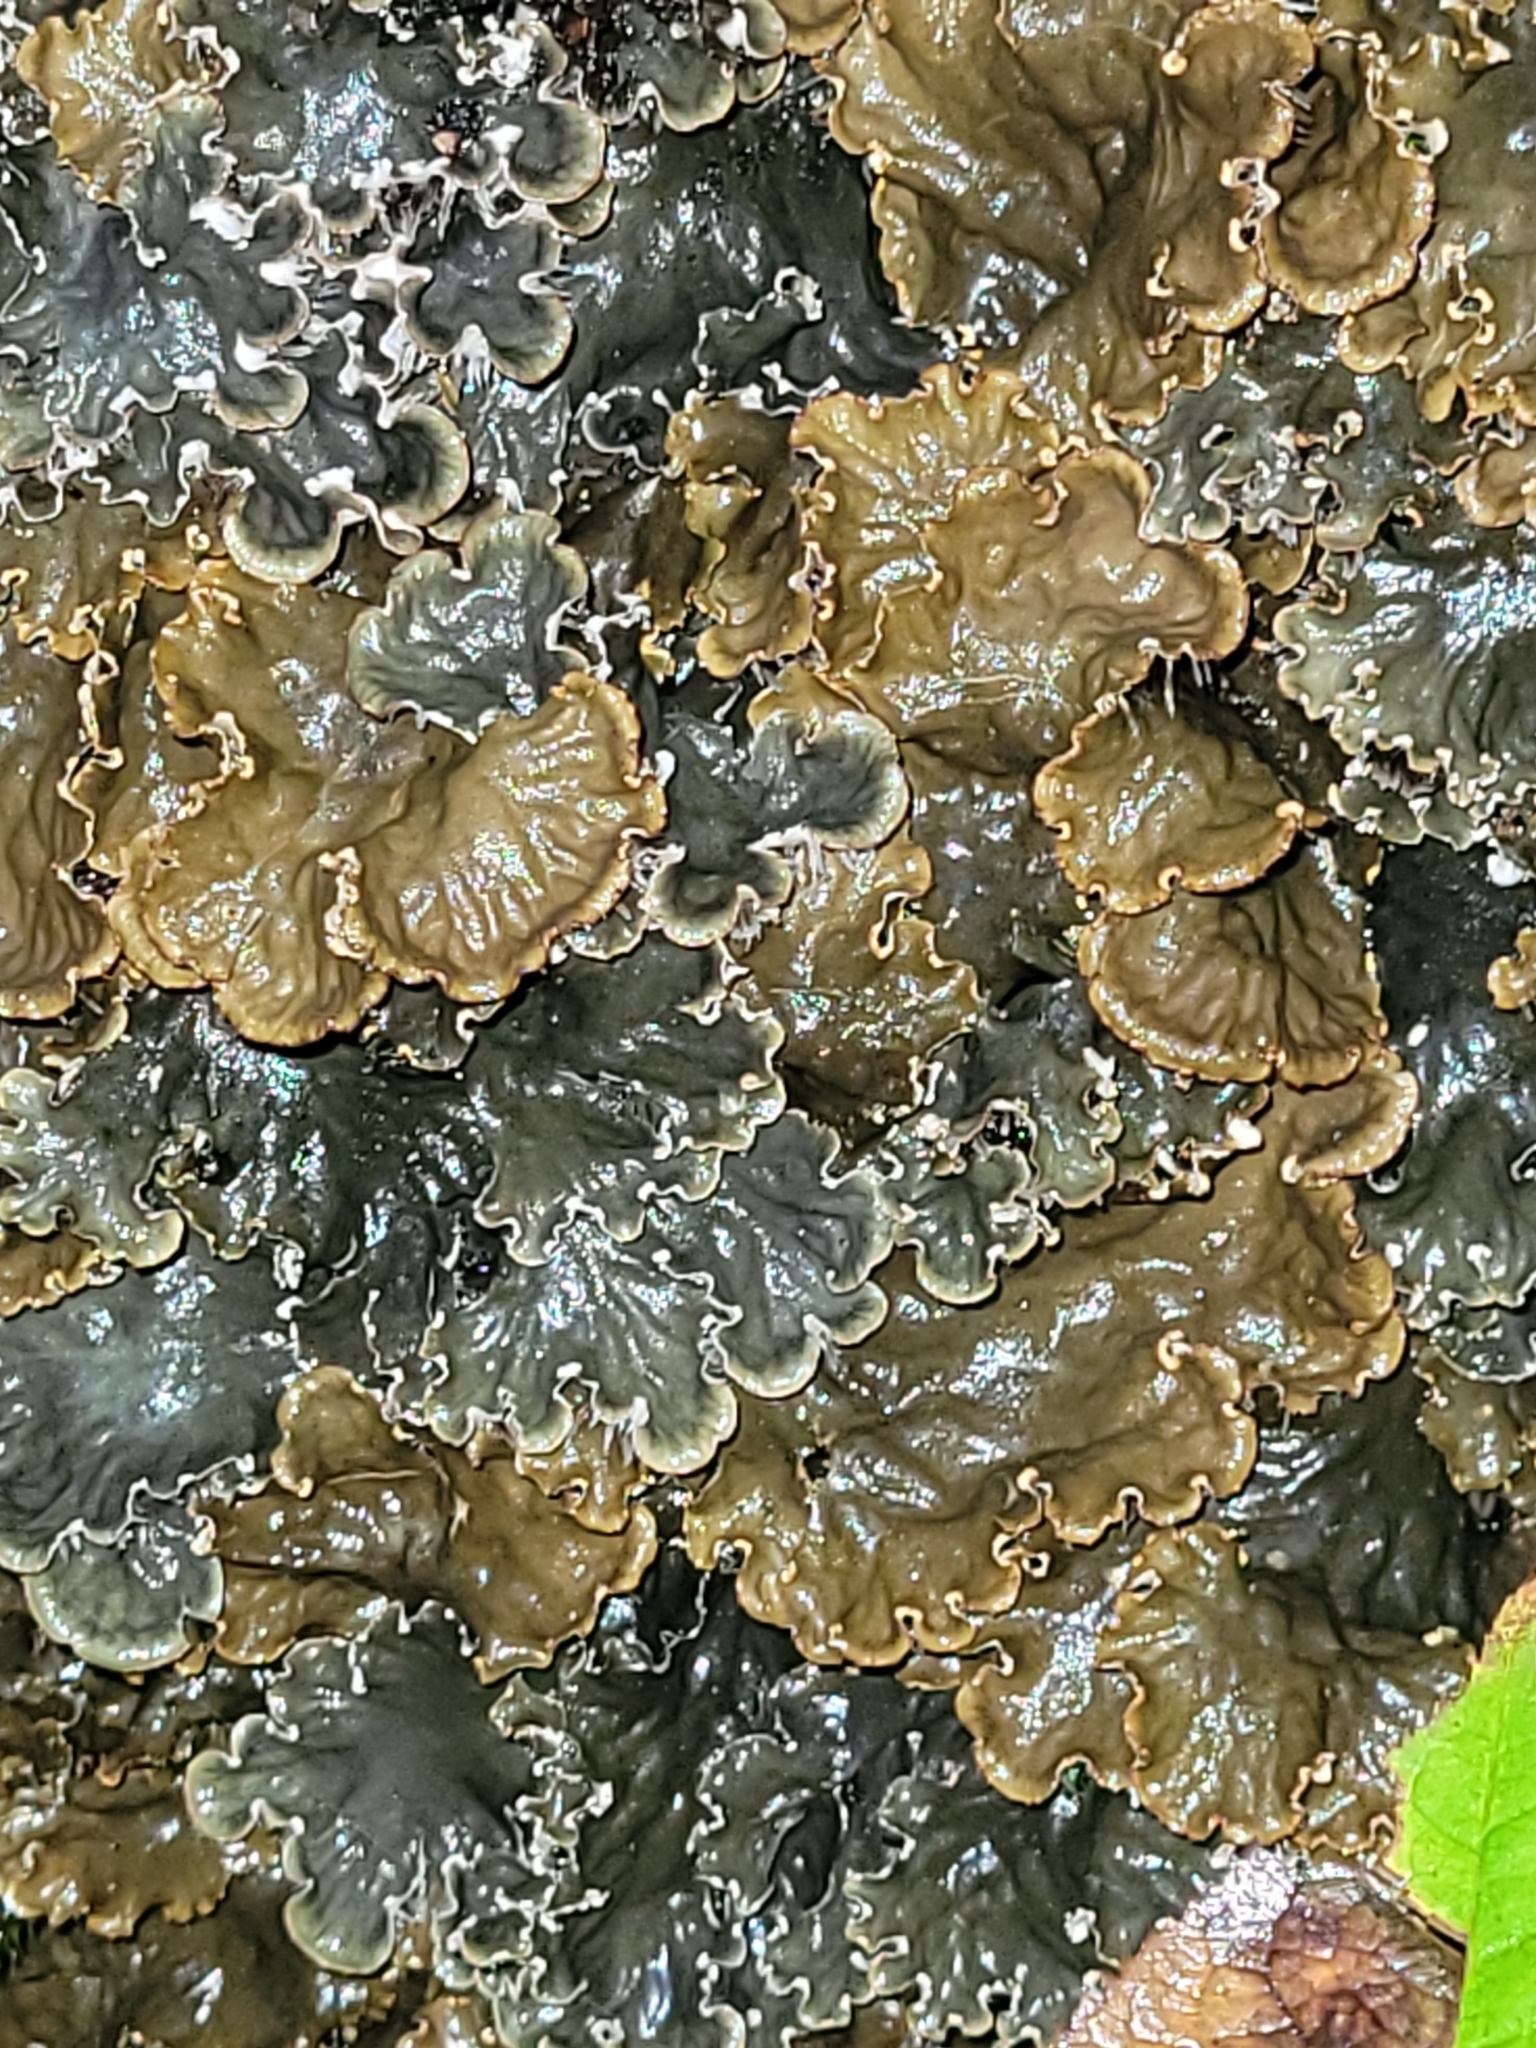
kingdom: Fungi
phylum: Ascomycota
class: Lecanoromycetes
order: Peltigerales
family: Peltigeraceae
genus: Peltigera
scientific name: Peltigera praetextata
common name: Scaly dog-lichen
